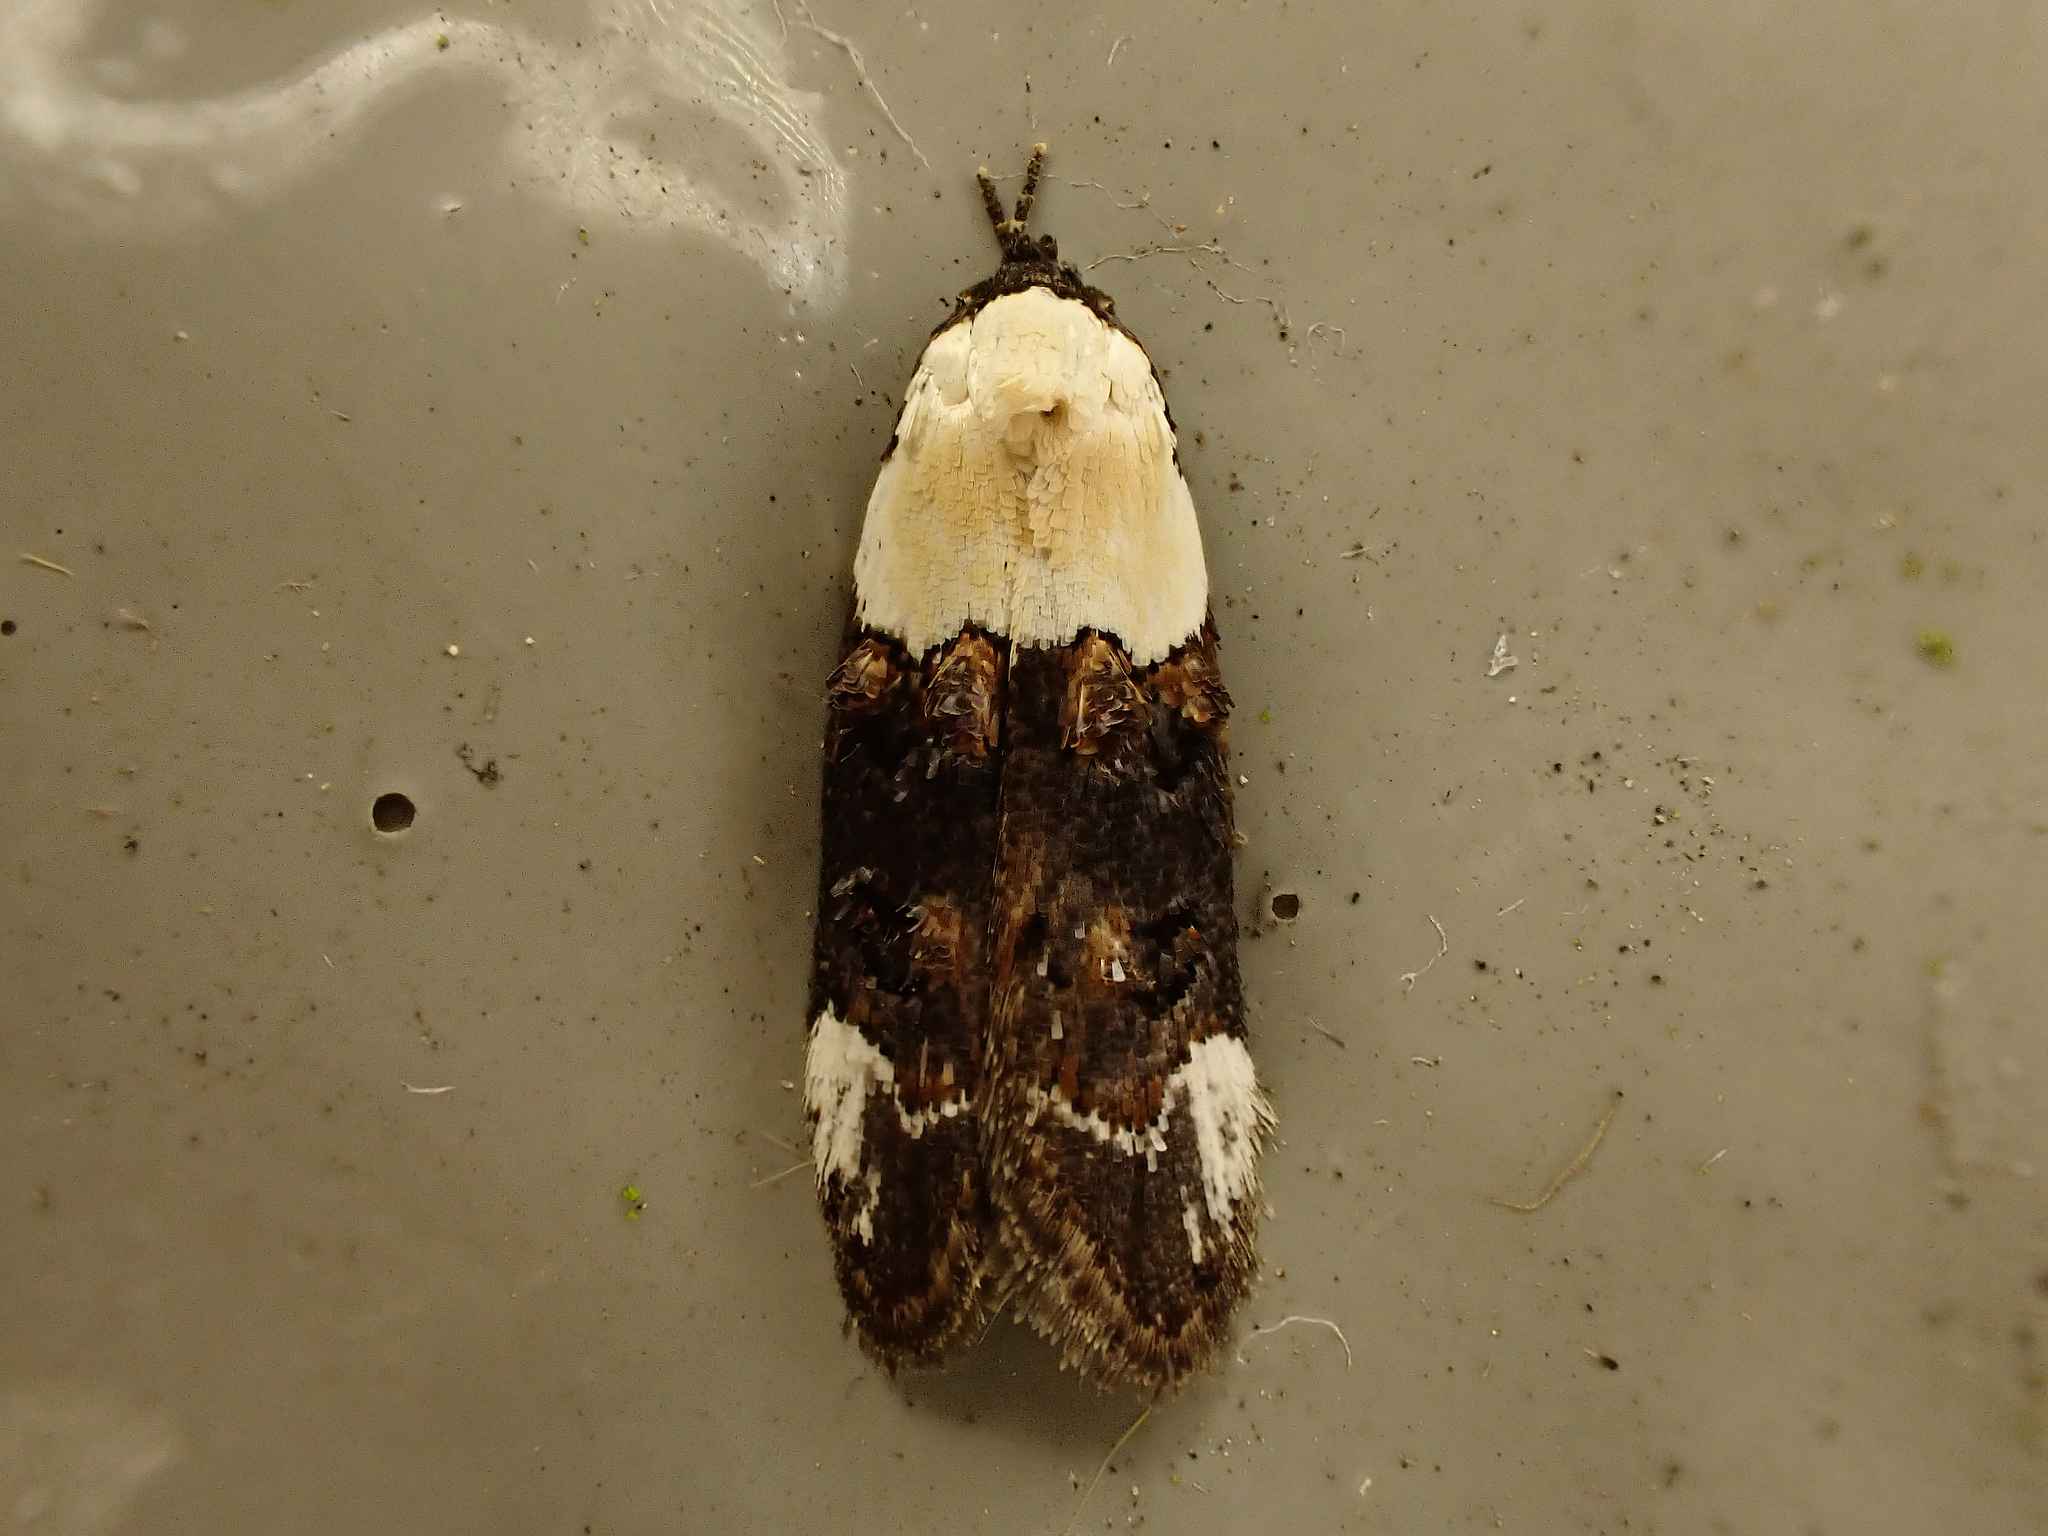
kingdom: Animalia
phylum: Arthropoda
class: Insecta
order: Lepidoptera
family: Oecophoridae
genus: Trachypepla
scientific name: Trachypepla euryleucota
